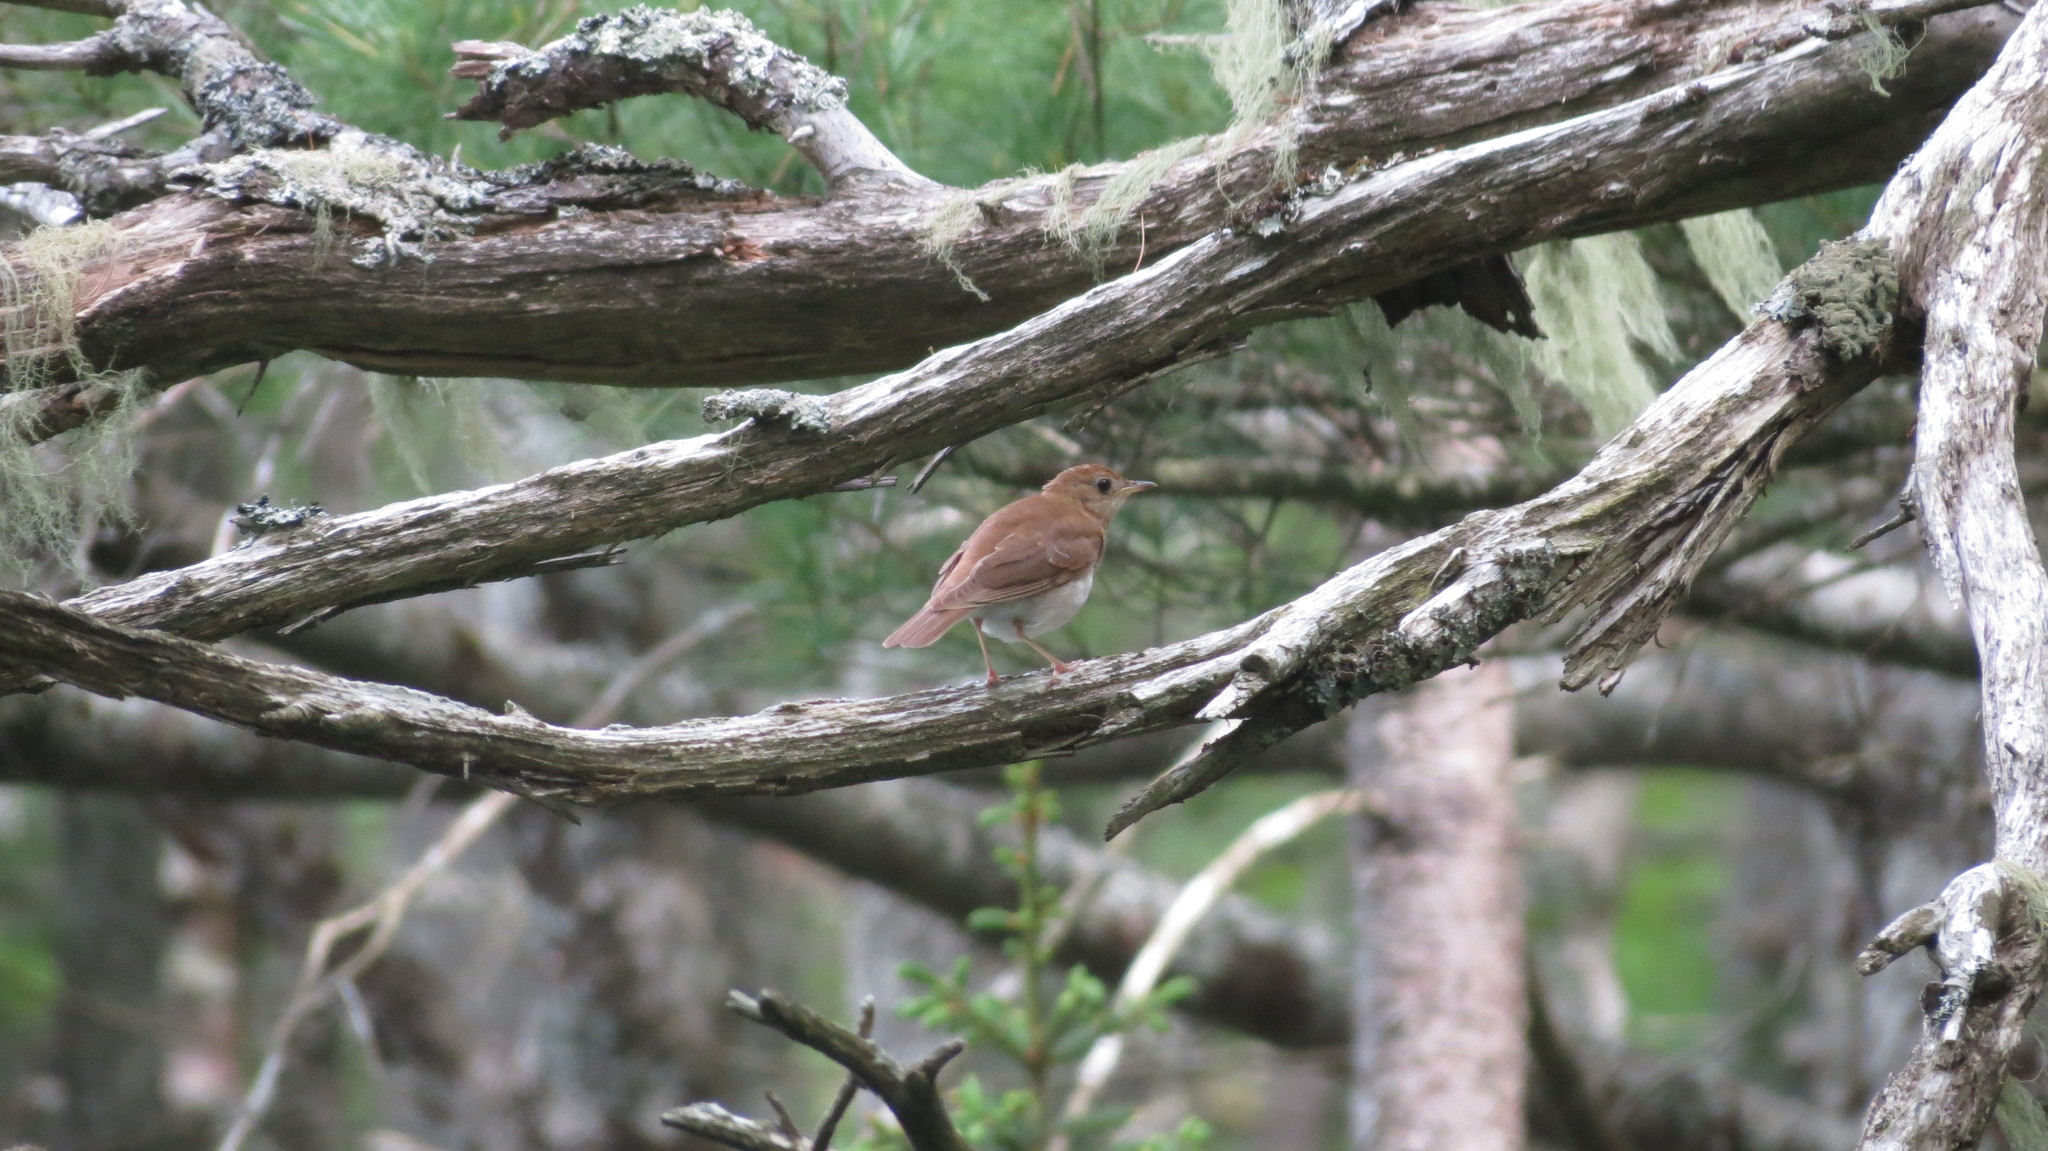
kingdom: Animalia
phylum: Chordata
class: Aves
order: Passeriformes
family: Turdidae
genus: Catharus
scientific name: Catharus fuscescens
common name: Veery
